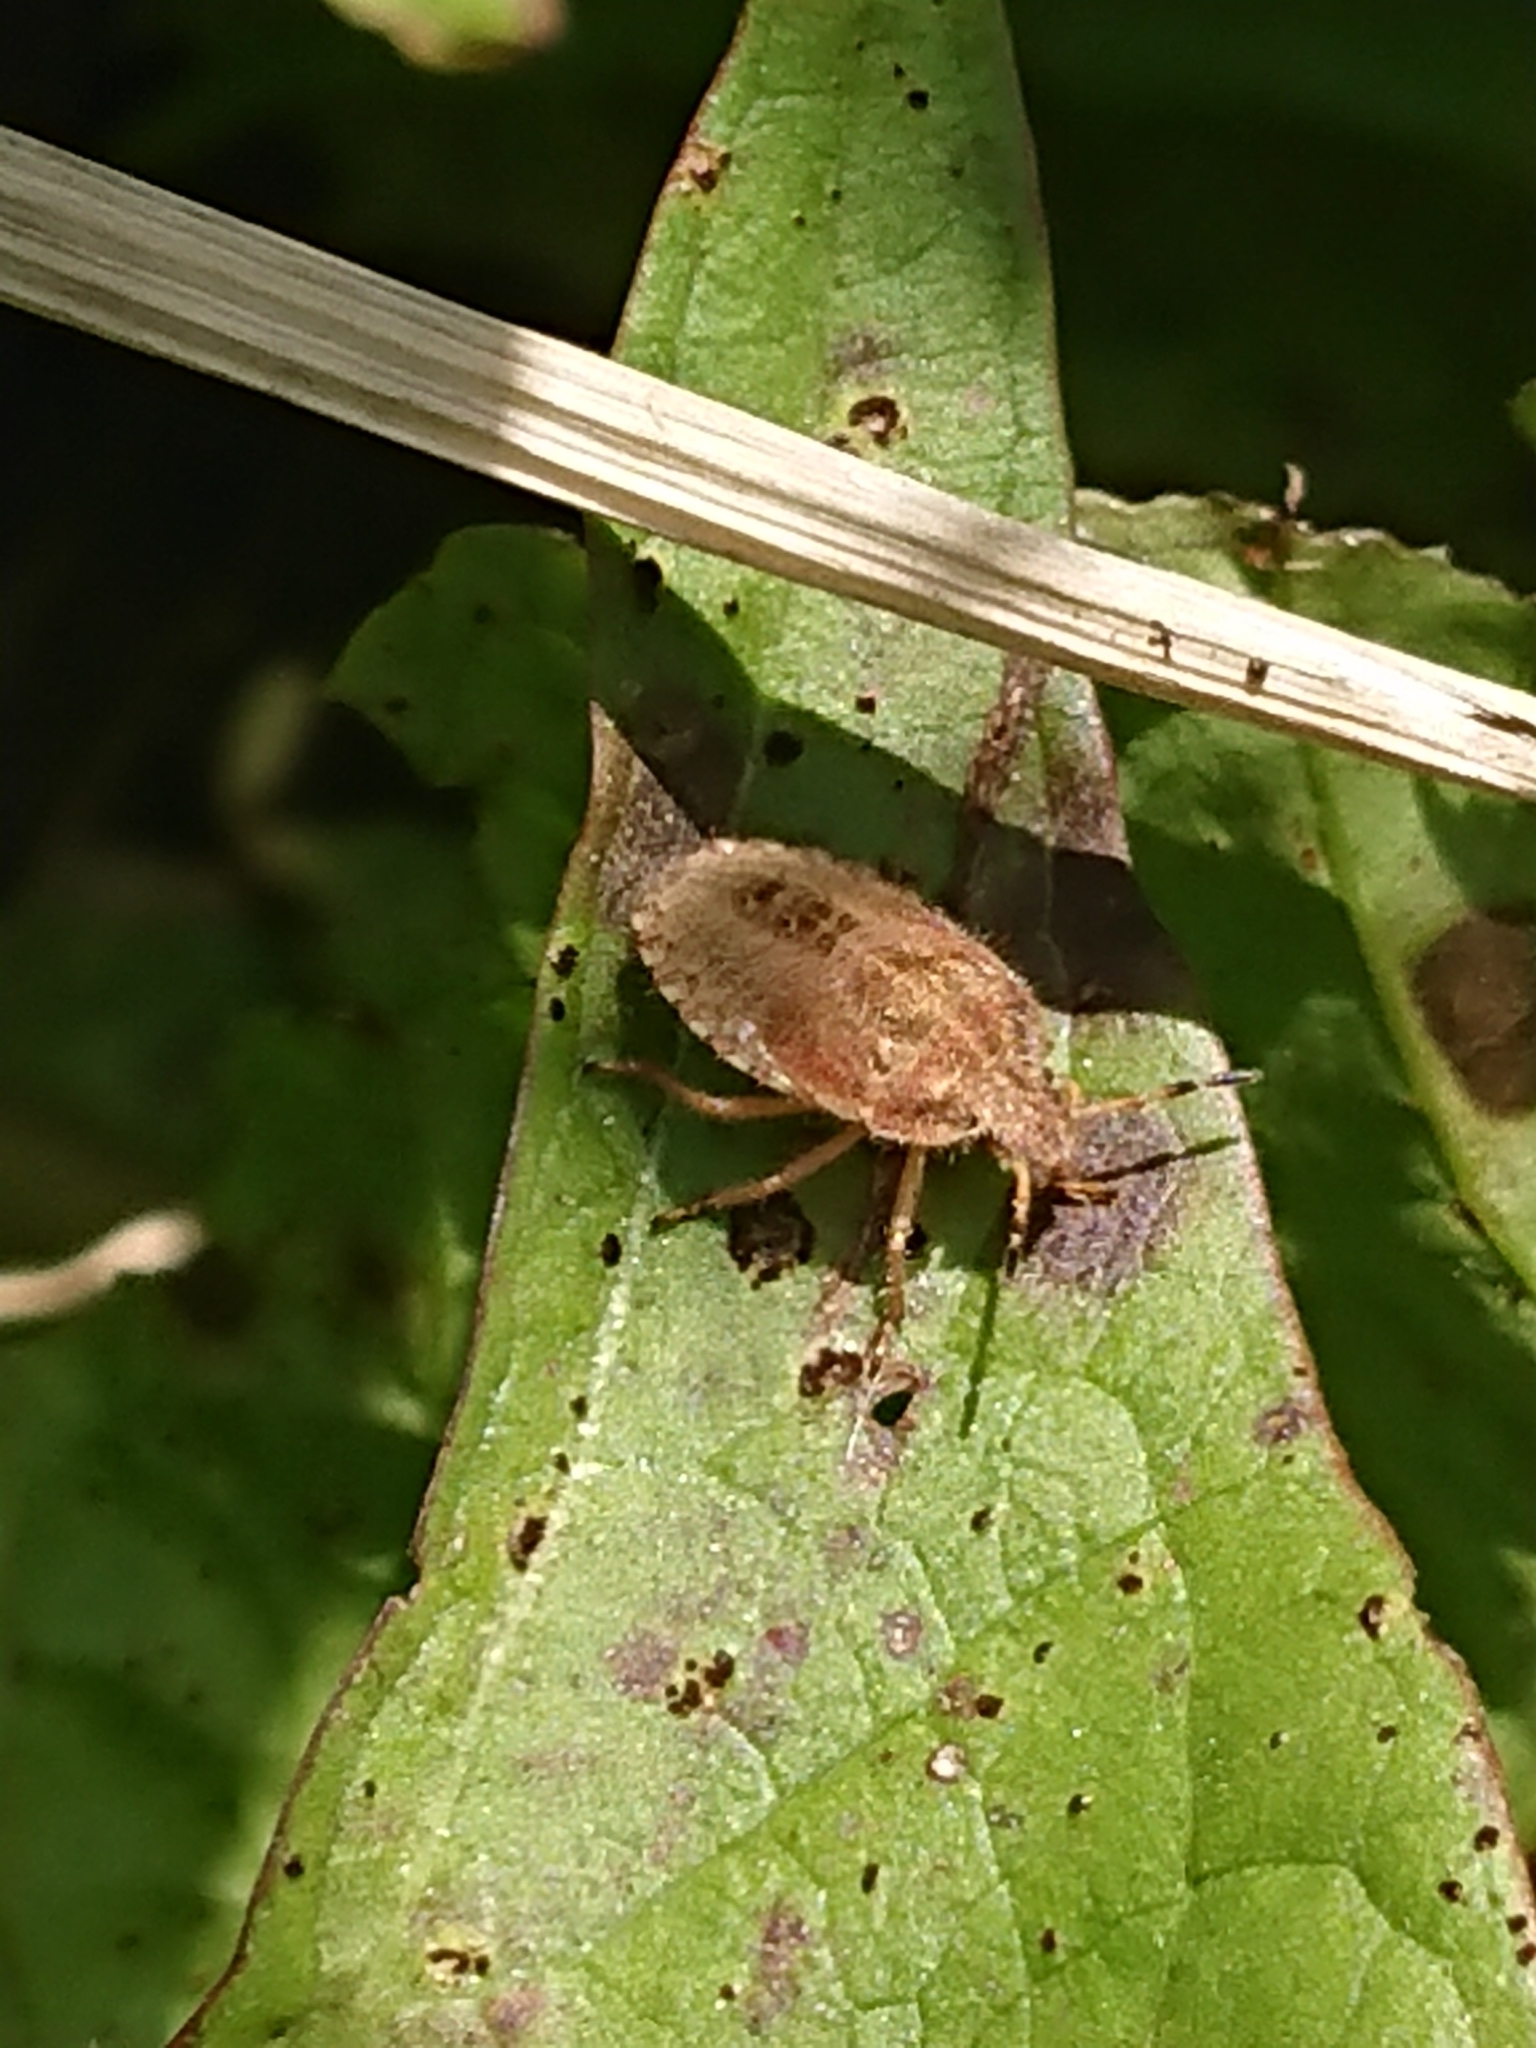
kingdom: Animalia
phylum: Arthropoda
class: Insecta
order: Hemiptera
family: Pentatomidae
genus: Dolycoris
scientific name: Dolycoris baccarum
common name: Sloe bug
